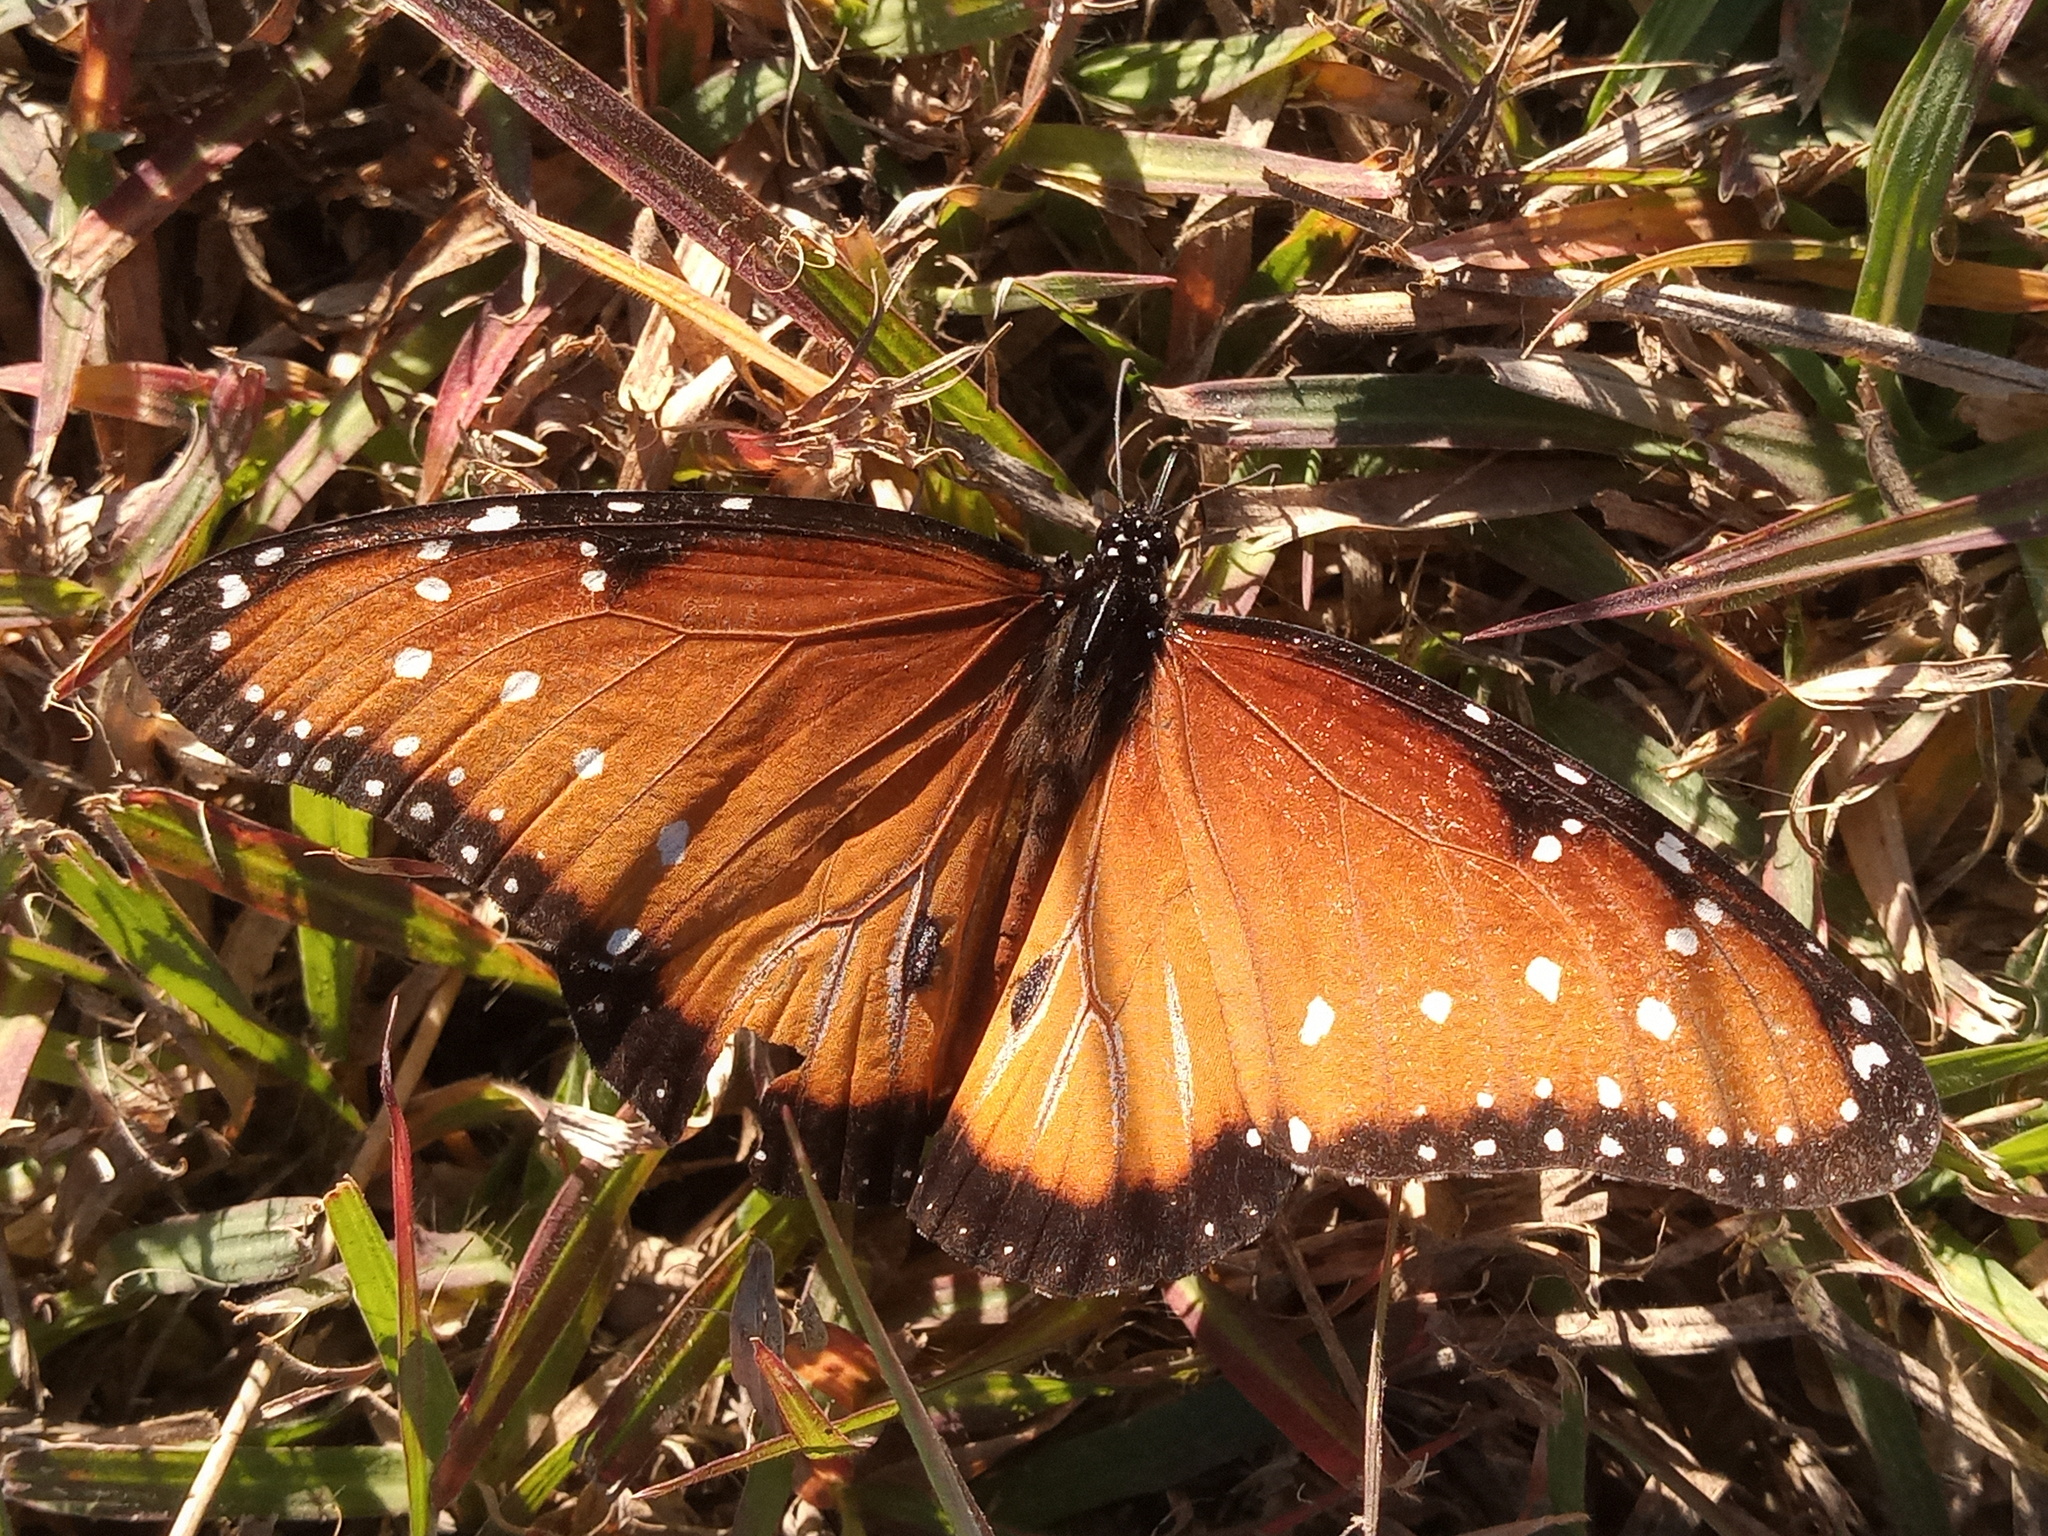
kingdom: Animalia
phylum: Arthropoda
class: Insecta
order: Lepidoptera
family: Nymphalidae
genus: Danaus
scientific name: Danaus gilippus
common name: Queen
